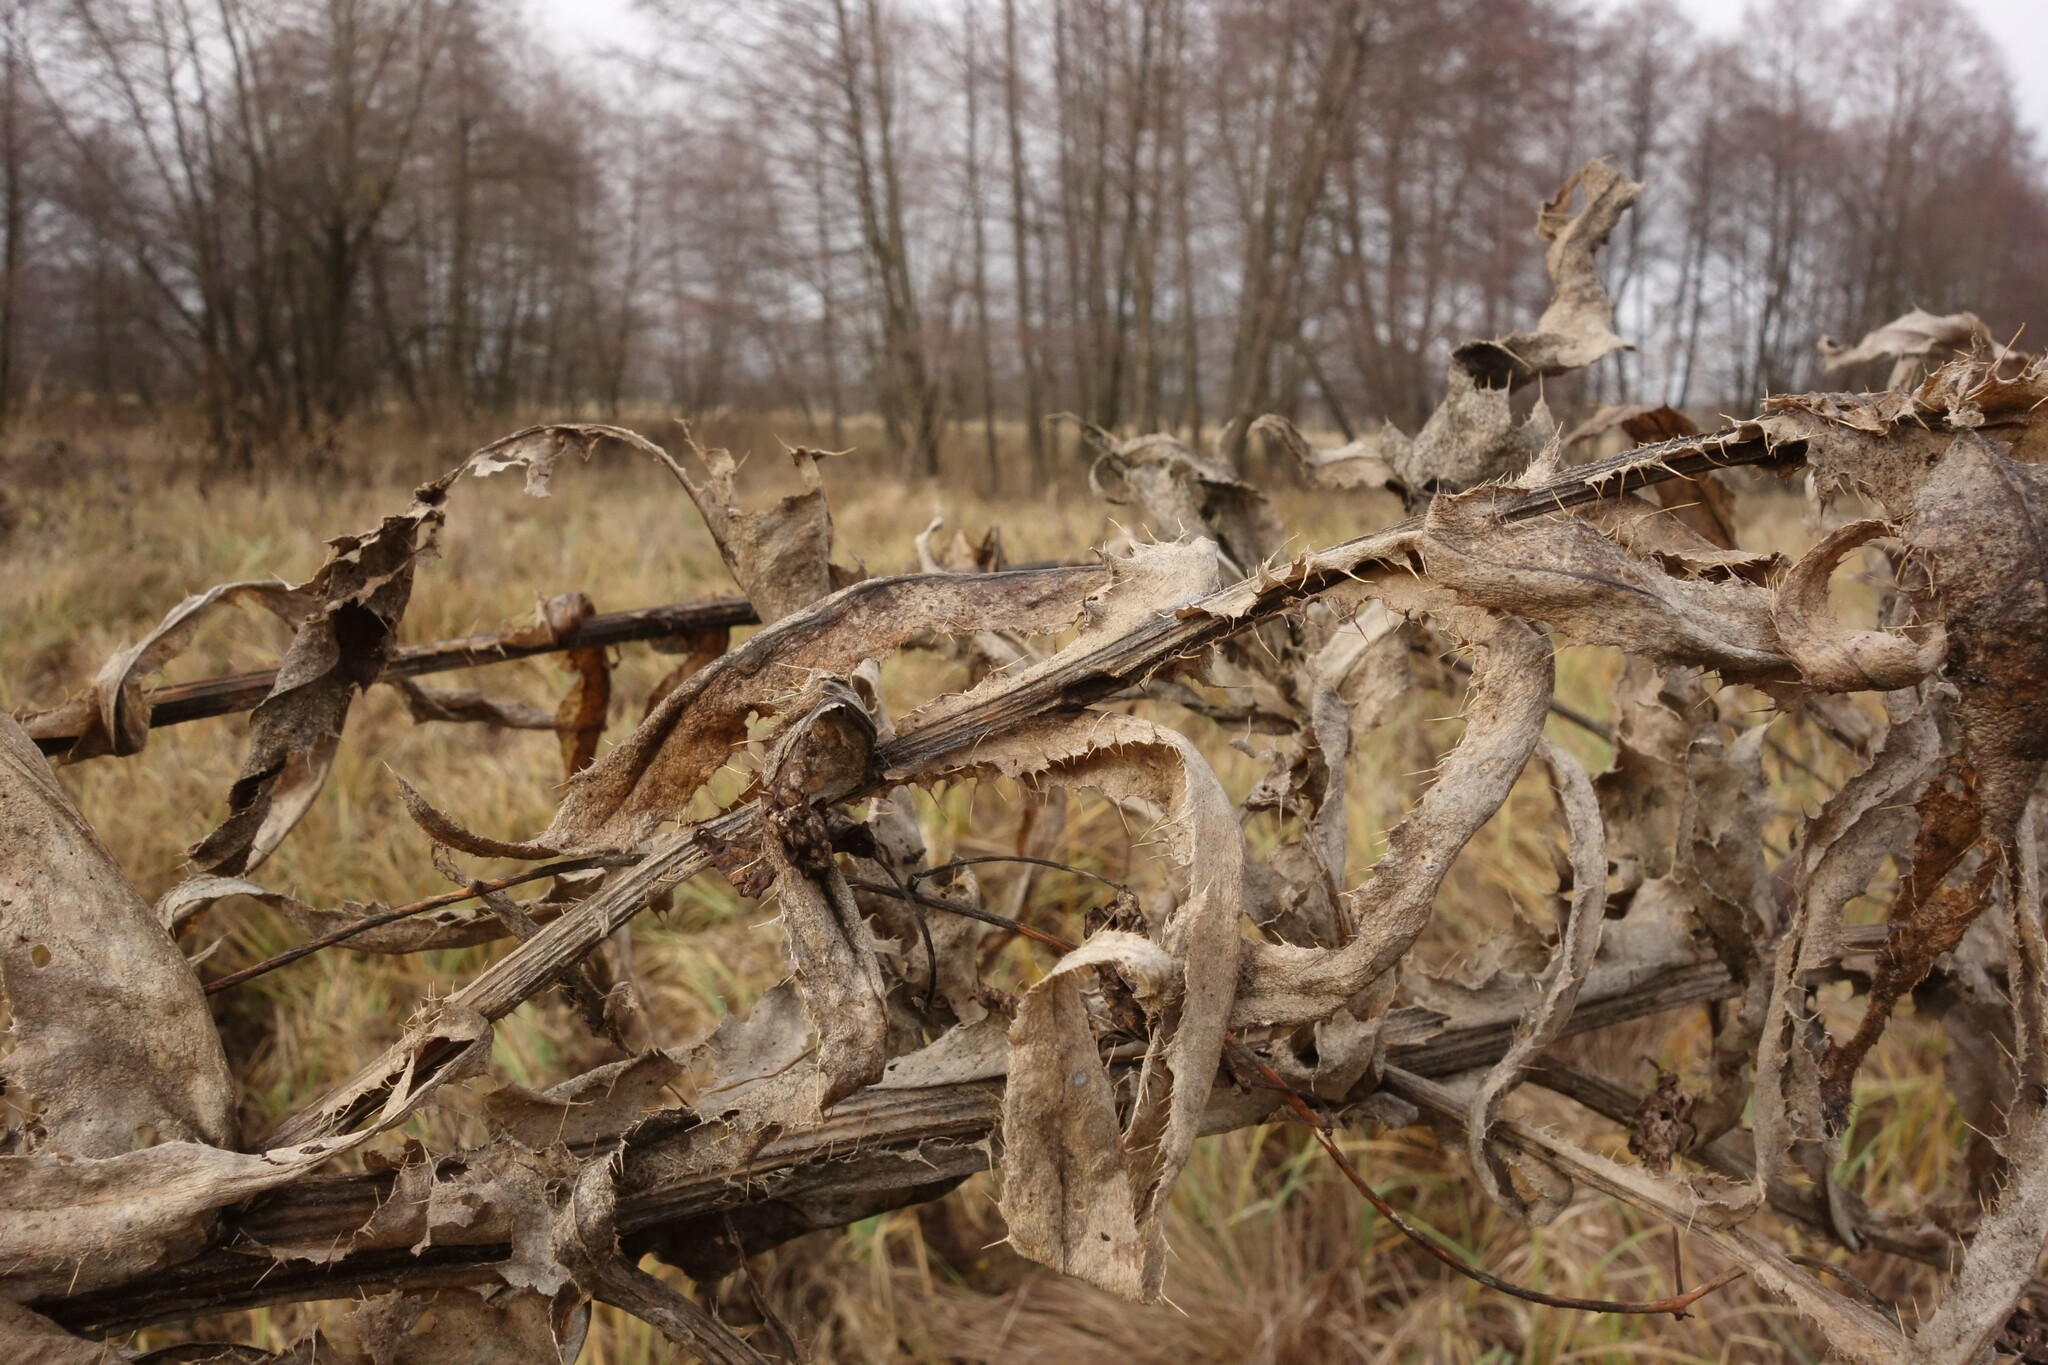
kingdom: Plantae
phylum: Tracheophyta
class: Magnoliopsida
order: Asterales
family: Asteraceae
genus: Cirsium
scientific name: Cirsium canum
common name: Queen anne's thistle
